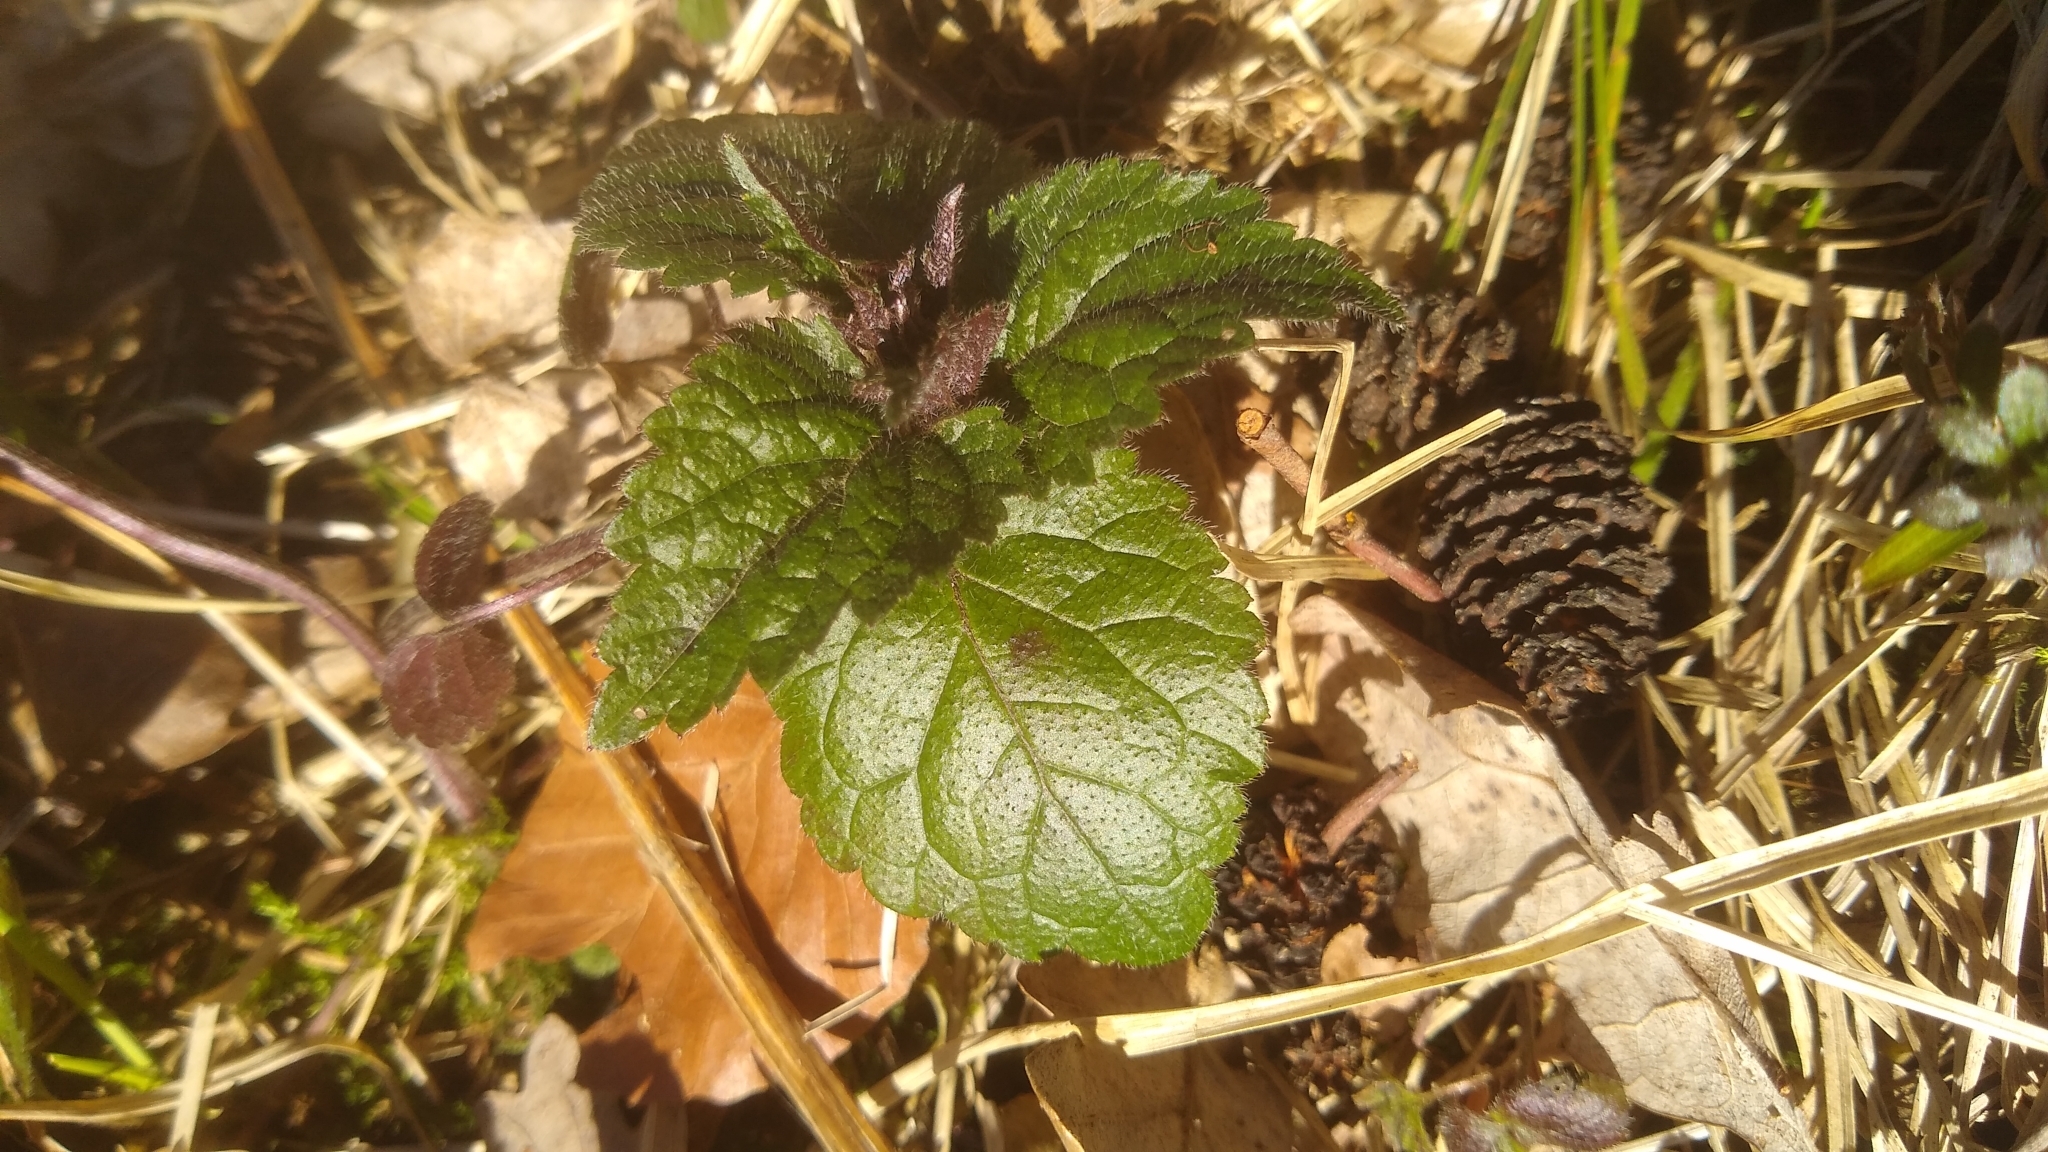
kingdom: Plantae
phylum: Tracheophyta
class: Magnoliopsida
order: Lamiales
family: Lamiaceae
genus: Lamium
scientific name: Lamium galeobdolon
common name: Yellow archangel
